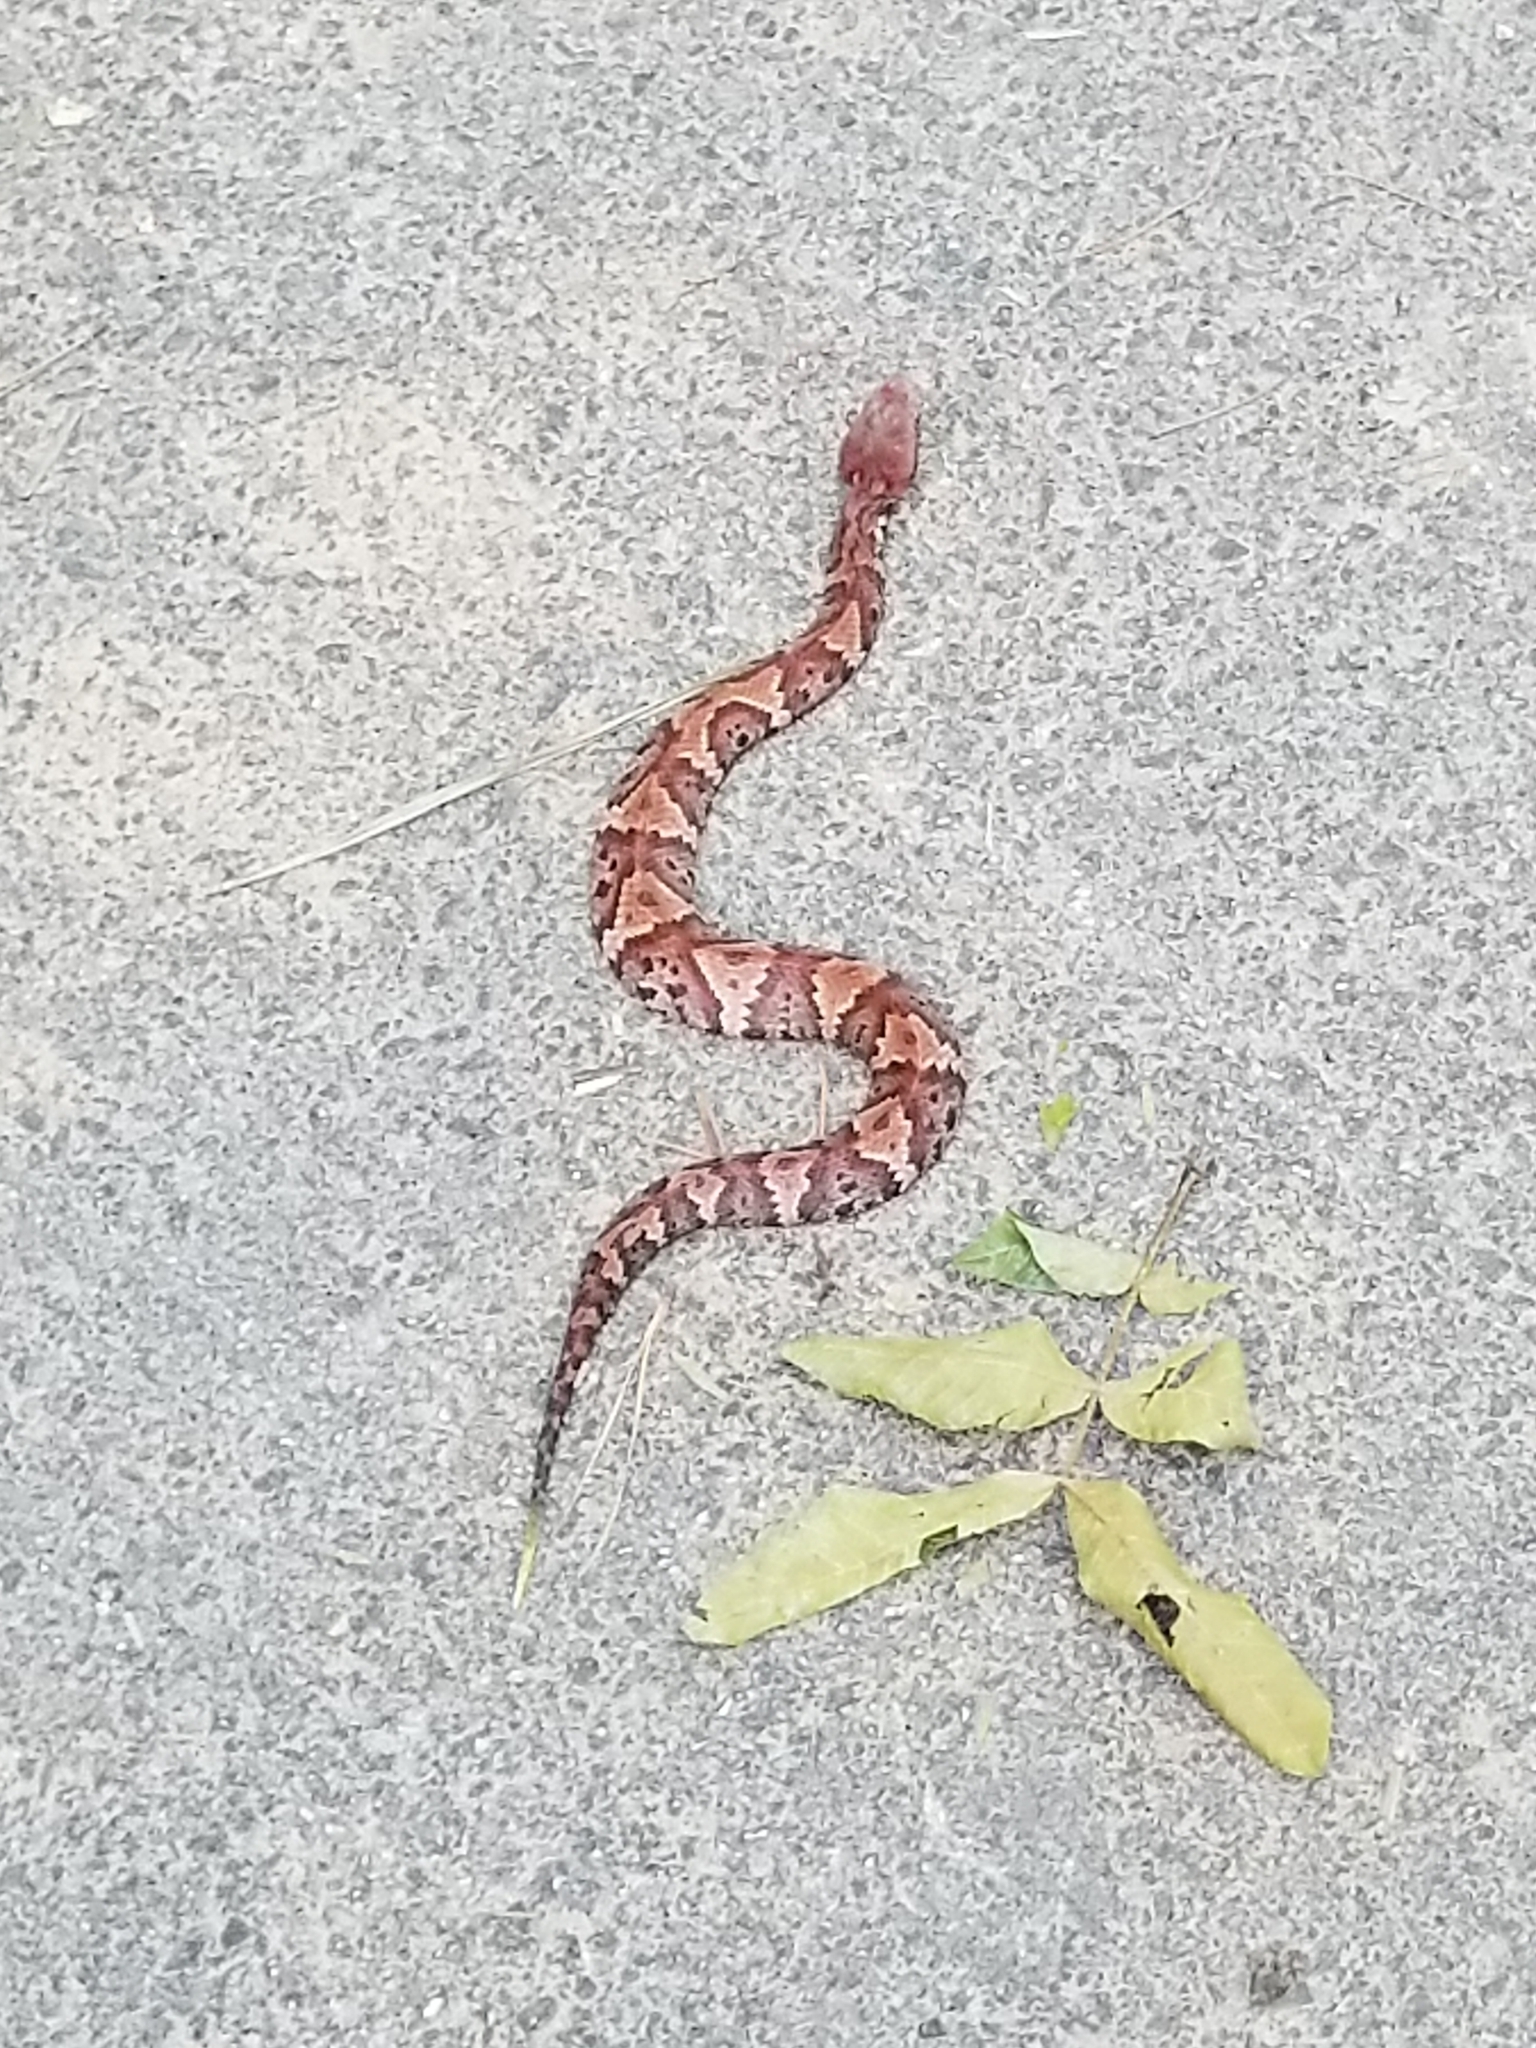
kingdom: Animalia
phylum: Chordata
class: Squamata
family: Viperidae
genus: Agkistrodon
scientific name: Agkistrodon piscivorus
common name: Cottonmouth
